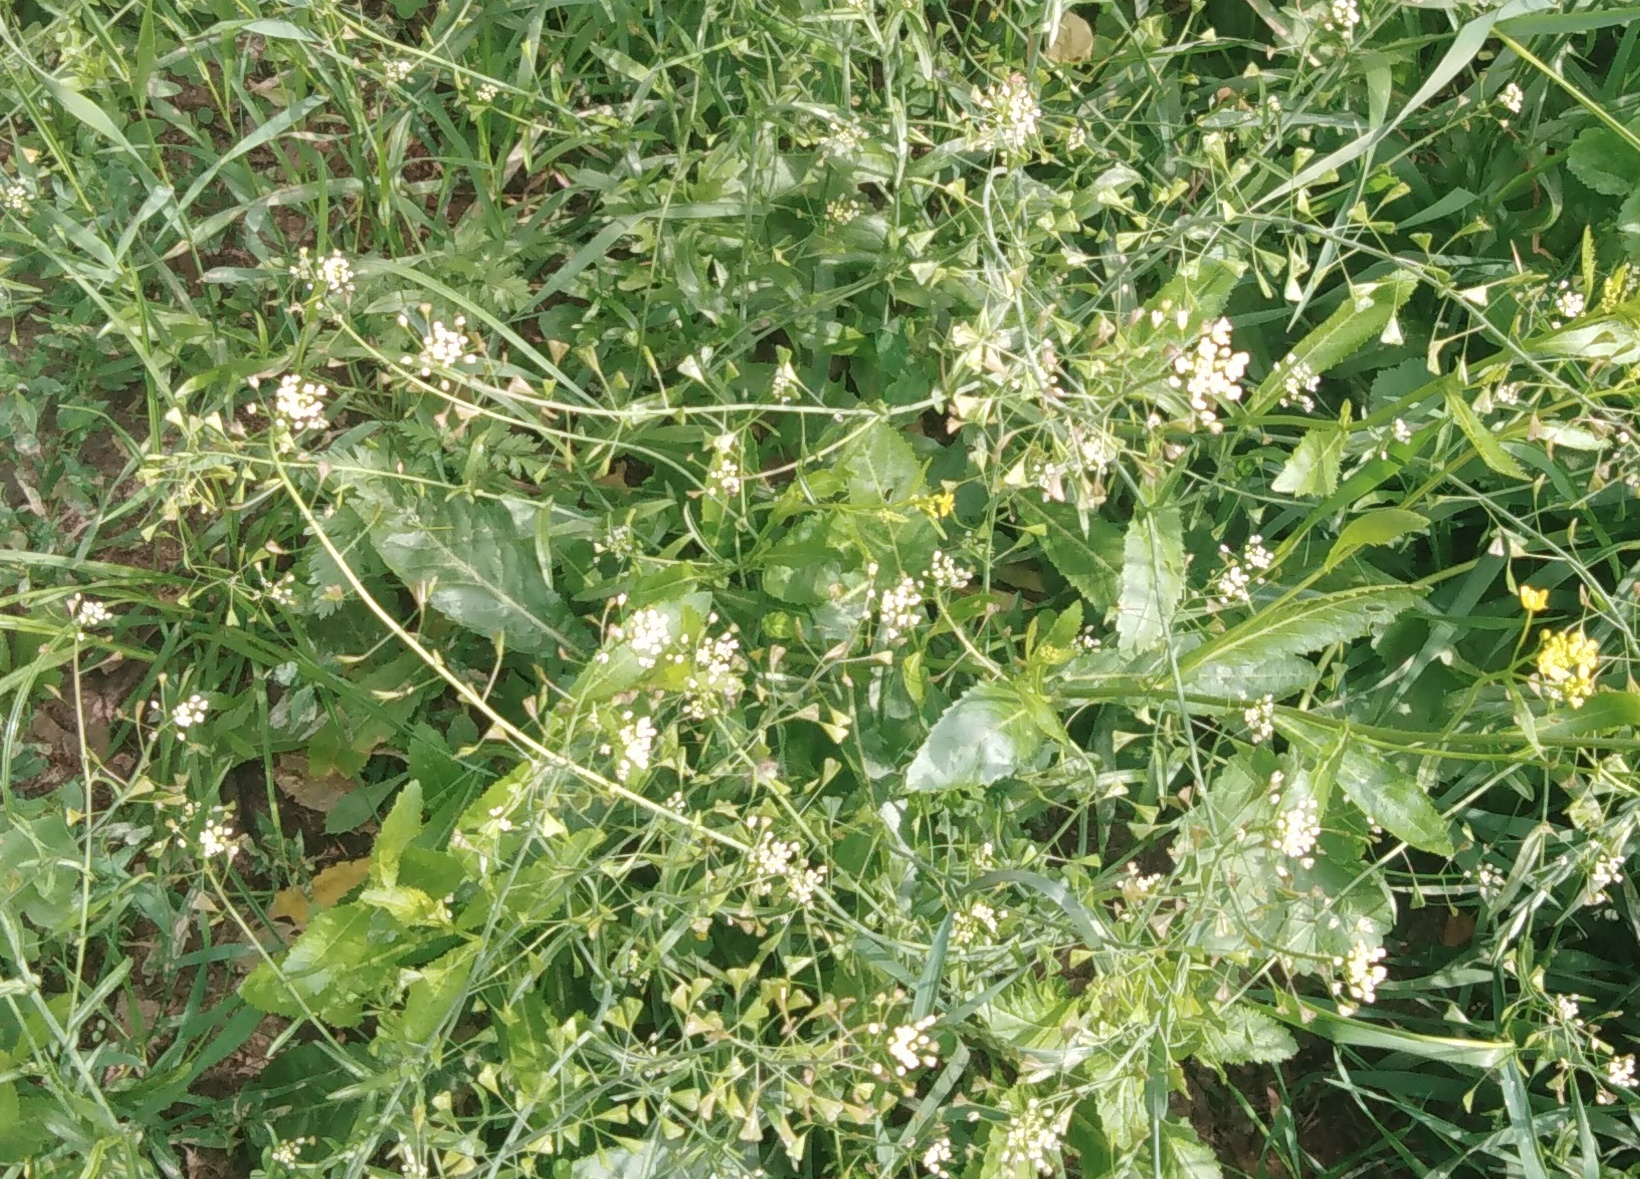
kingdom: Plantae
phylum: Tracheophyta
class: Magnoliopsida
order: Brassicales
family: Brassicaceae
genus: Capsella
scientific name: Capsella bursa-pastoris
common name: Shepherd's purse
